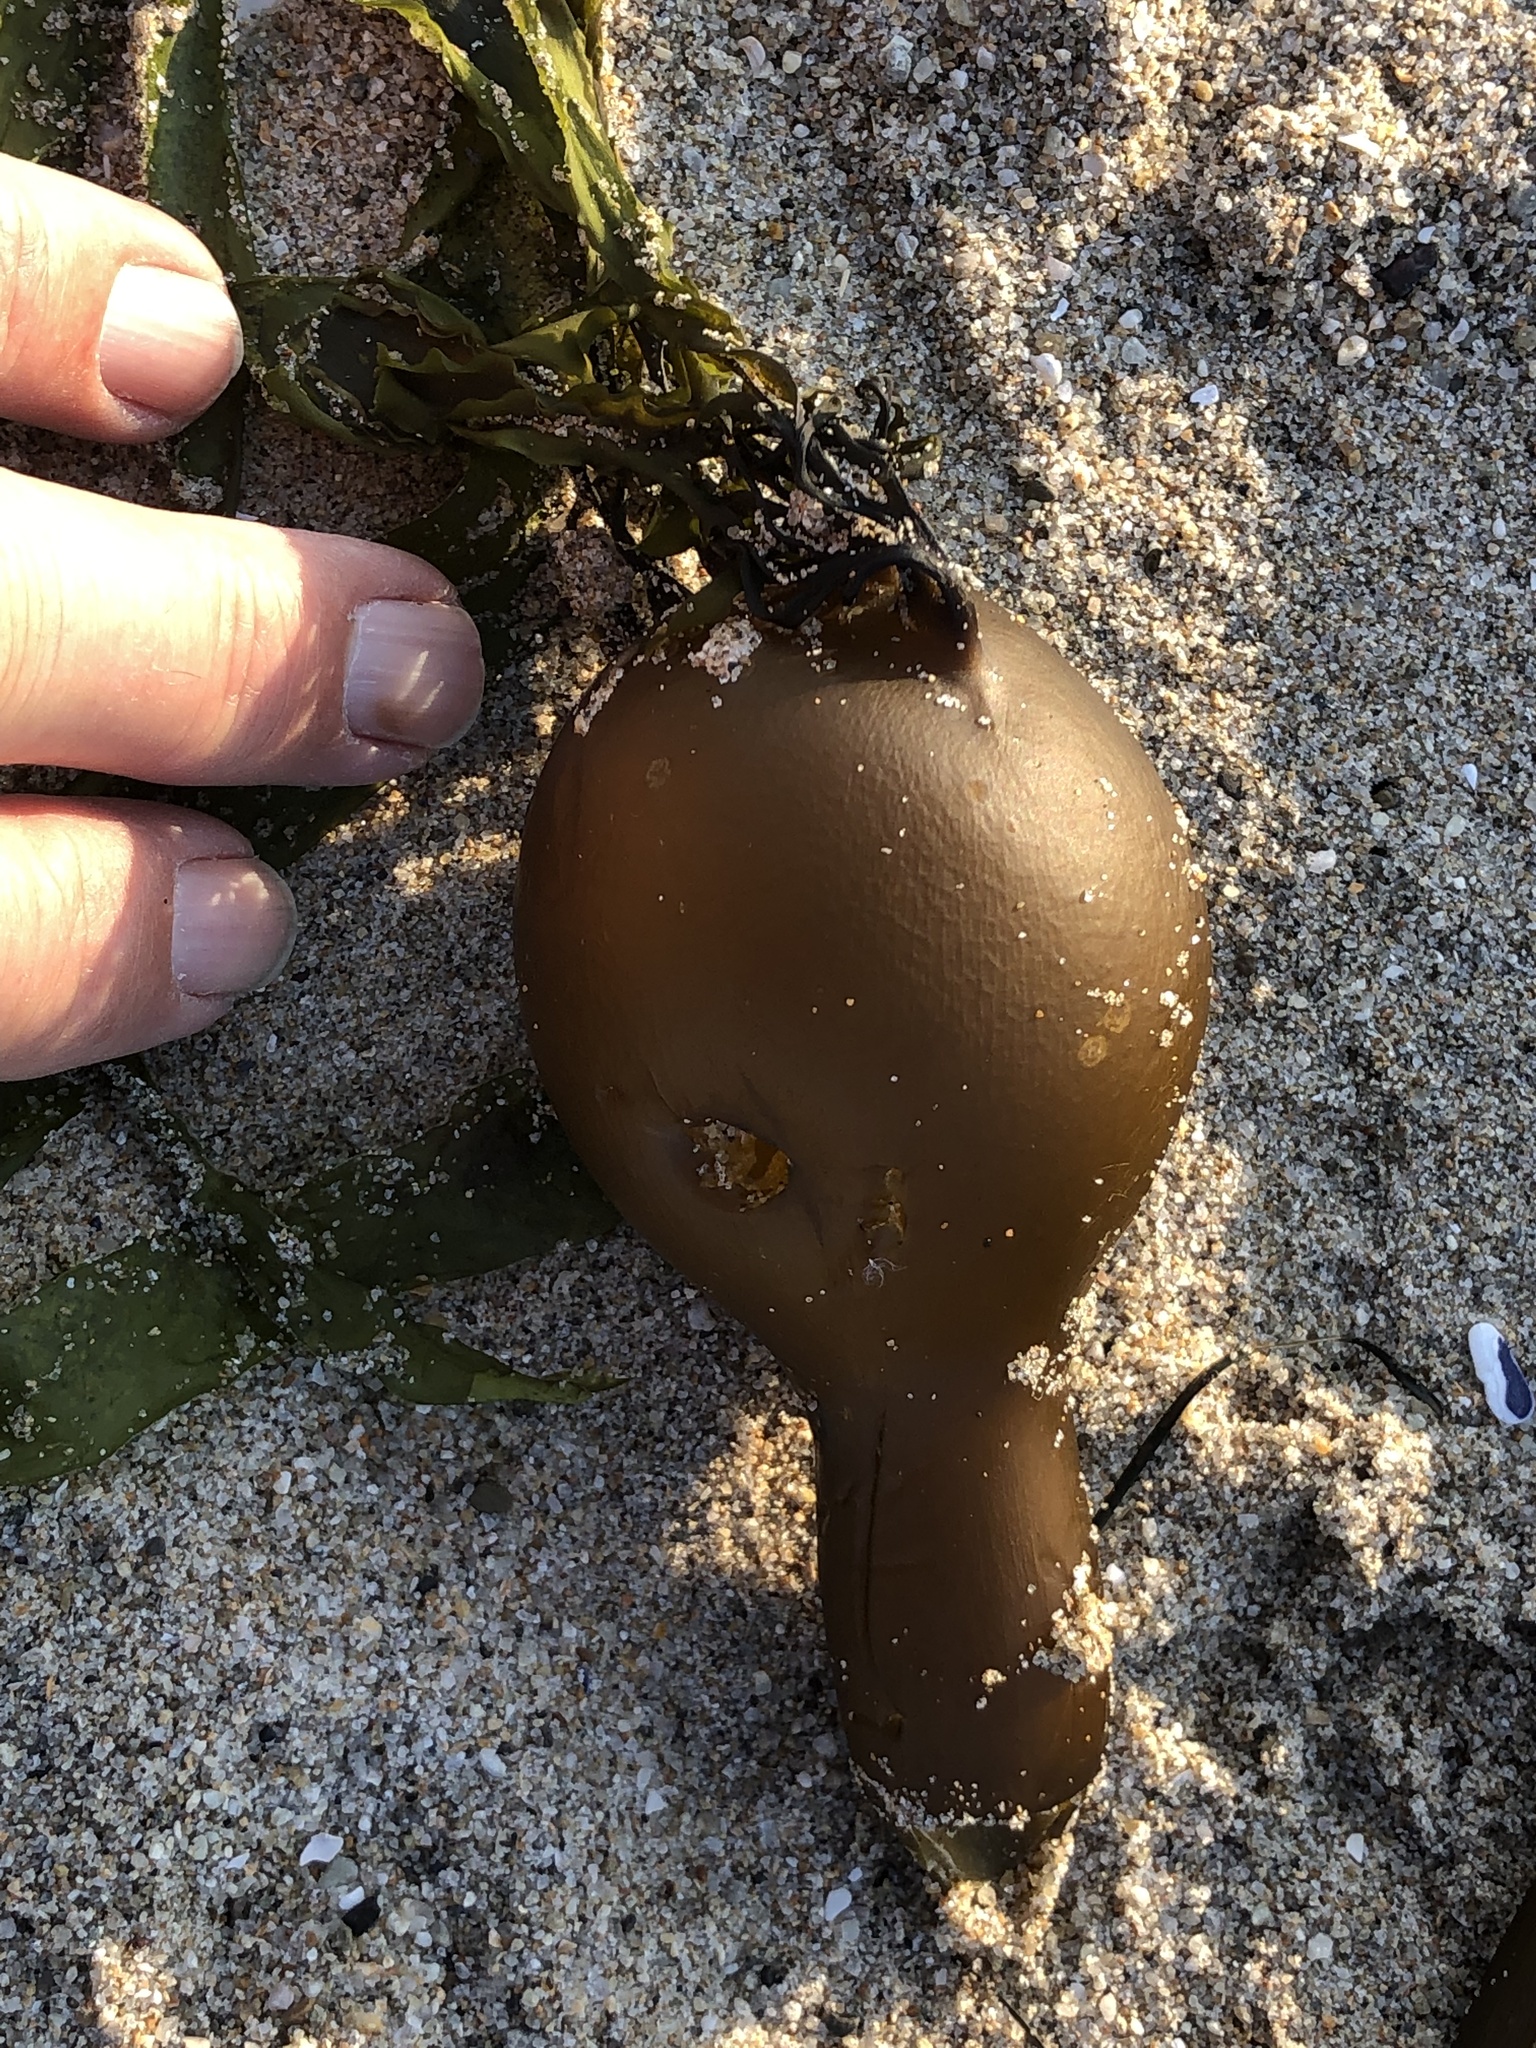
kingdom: Chromista
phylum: Ochrophyta
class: Phaeophyceae
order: Laminariales
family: Laminariaceae
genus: Nereocystis
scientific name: Nereocystis luetkeana
